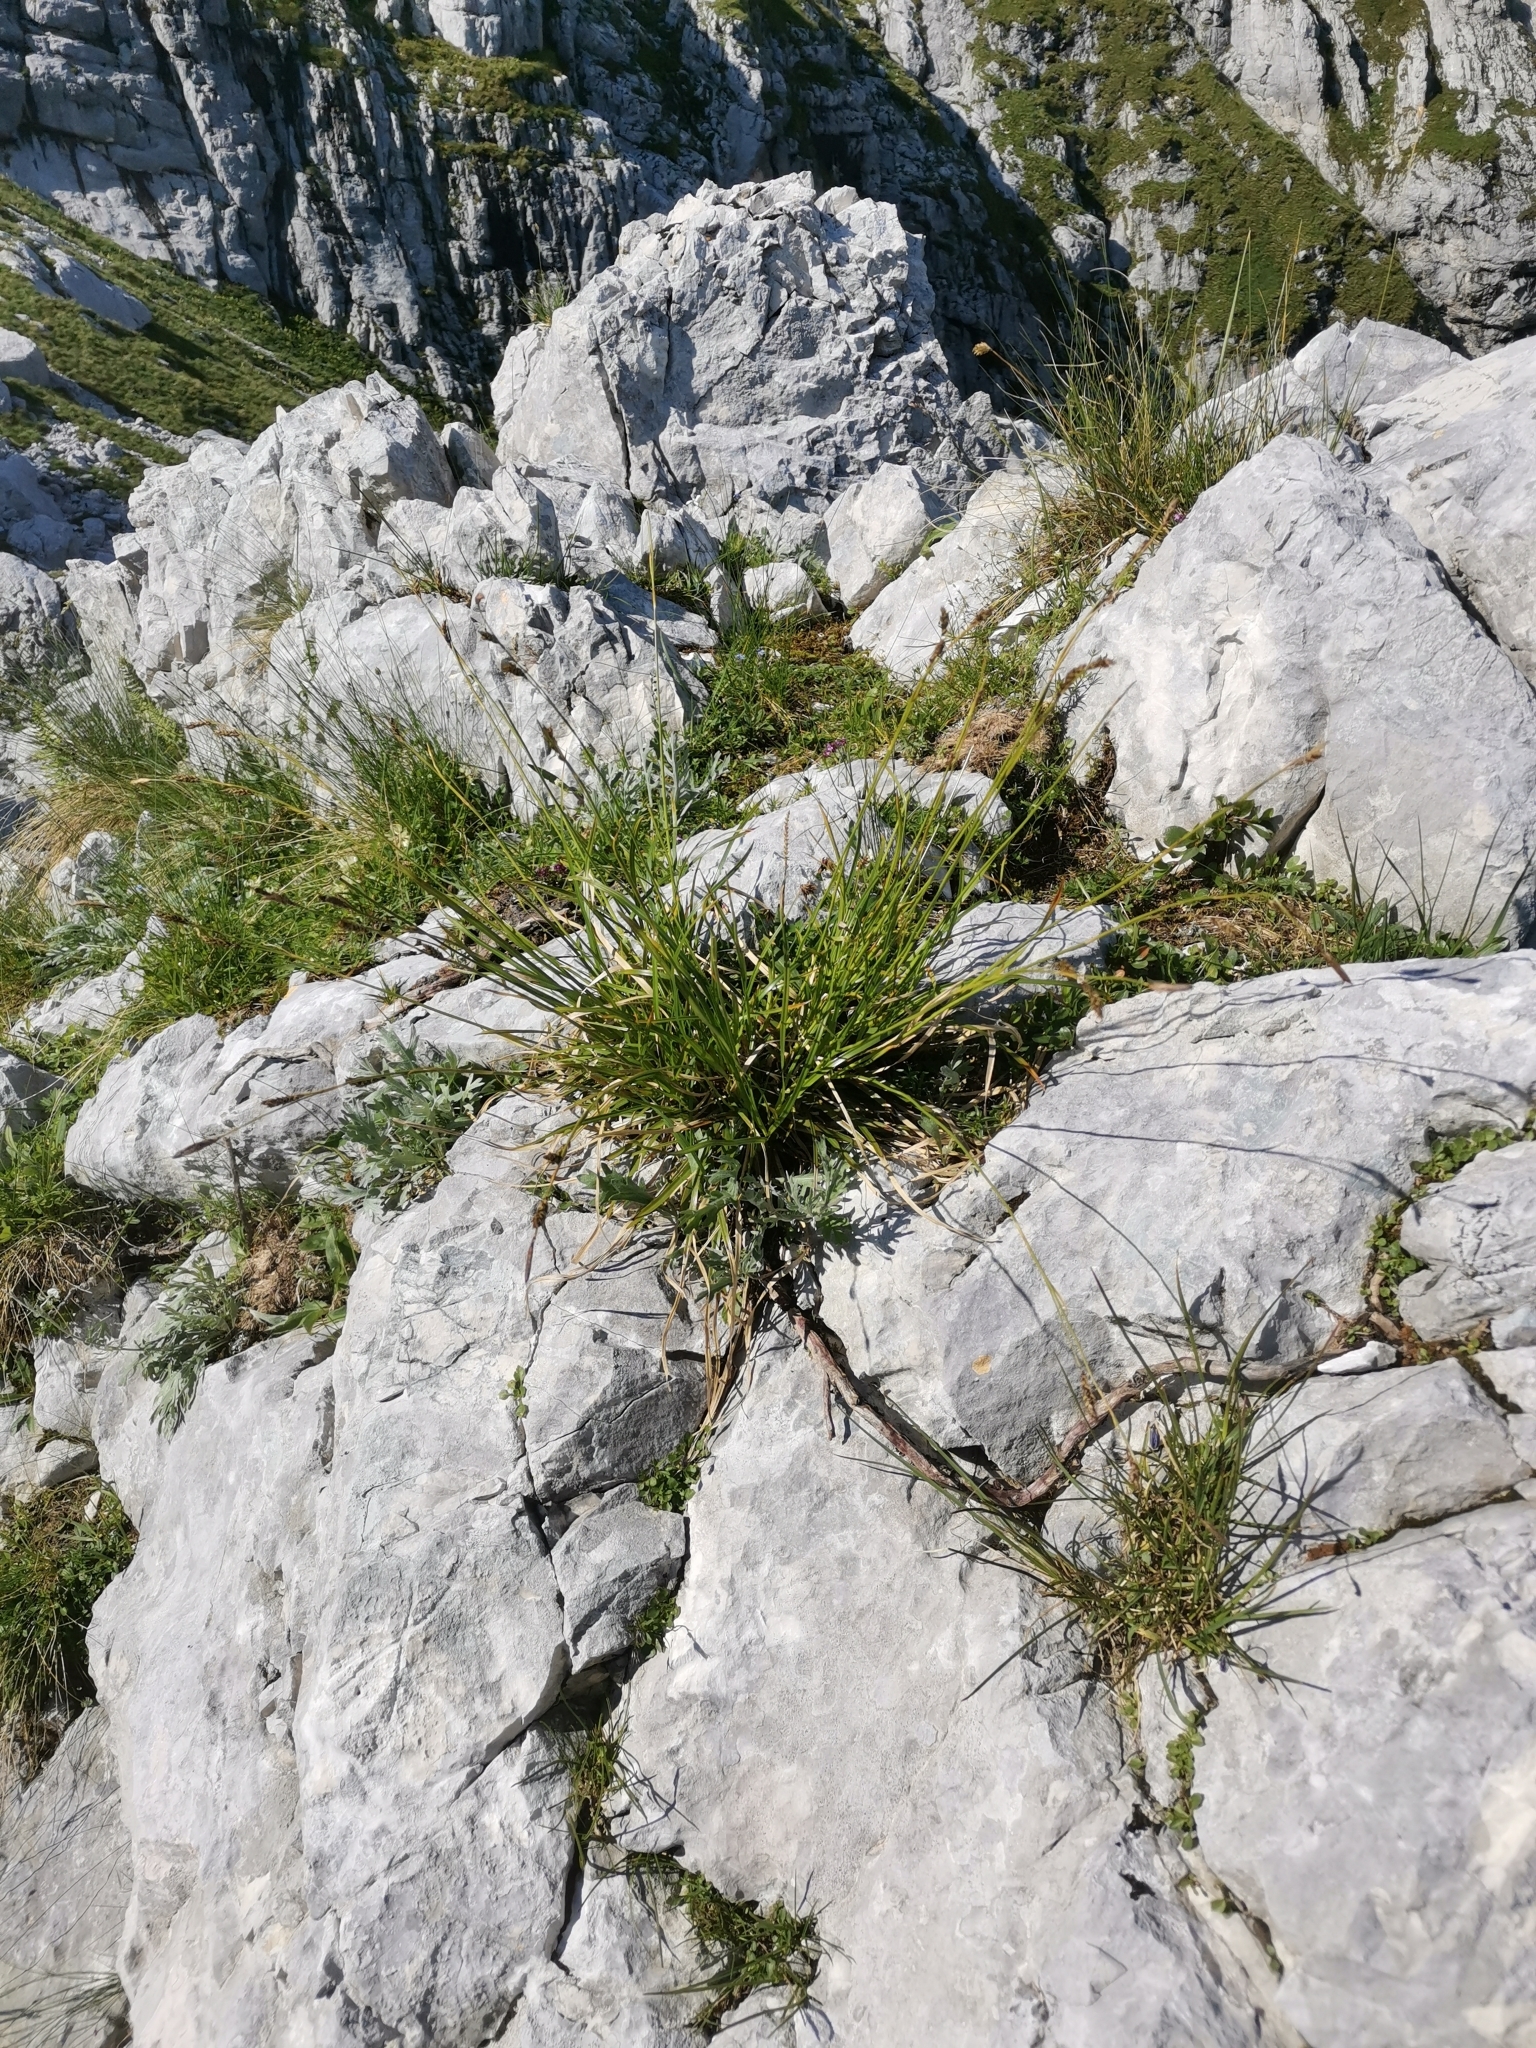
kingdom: Plantae
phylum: Tracheophyta
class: Liliopsida
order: Poales
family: Cyperaceae
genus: Carex
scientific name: Carex sempervirens
